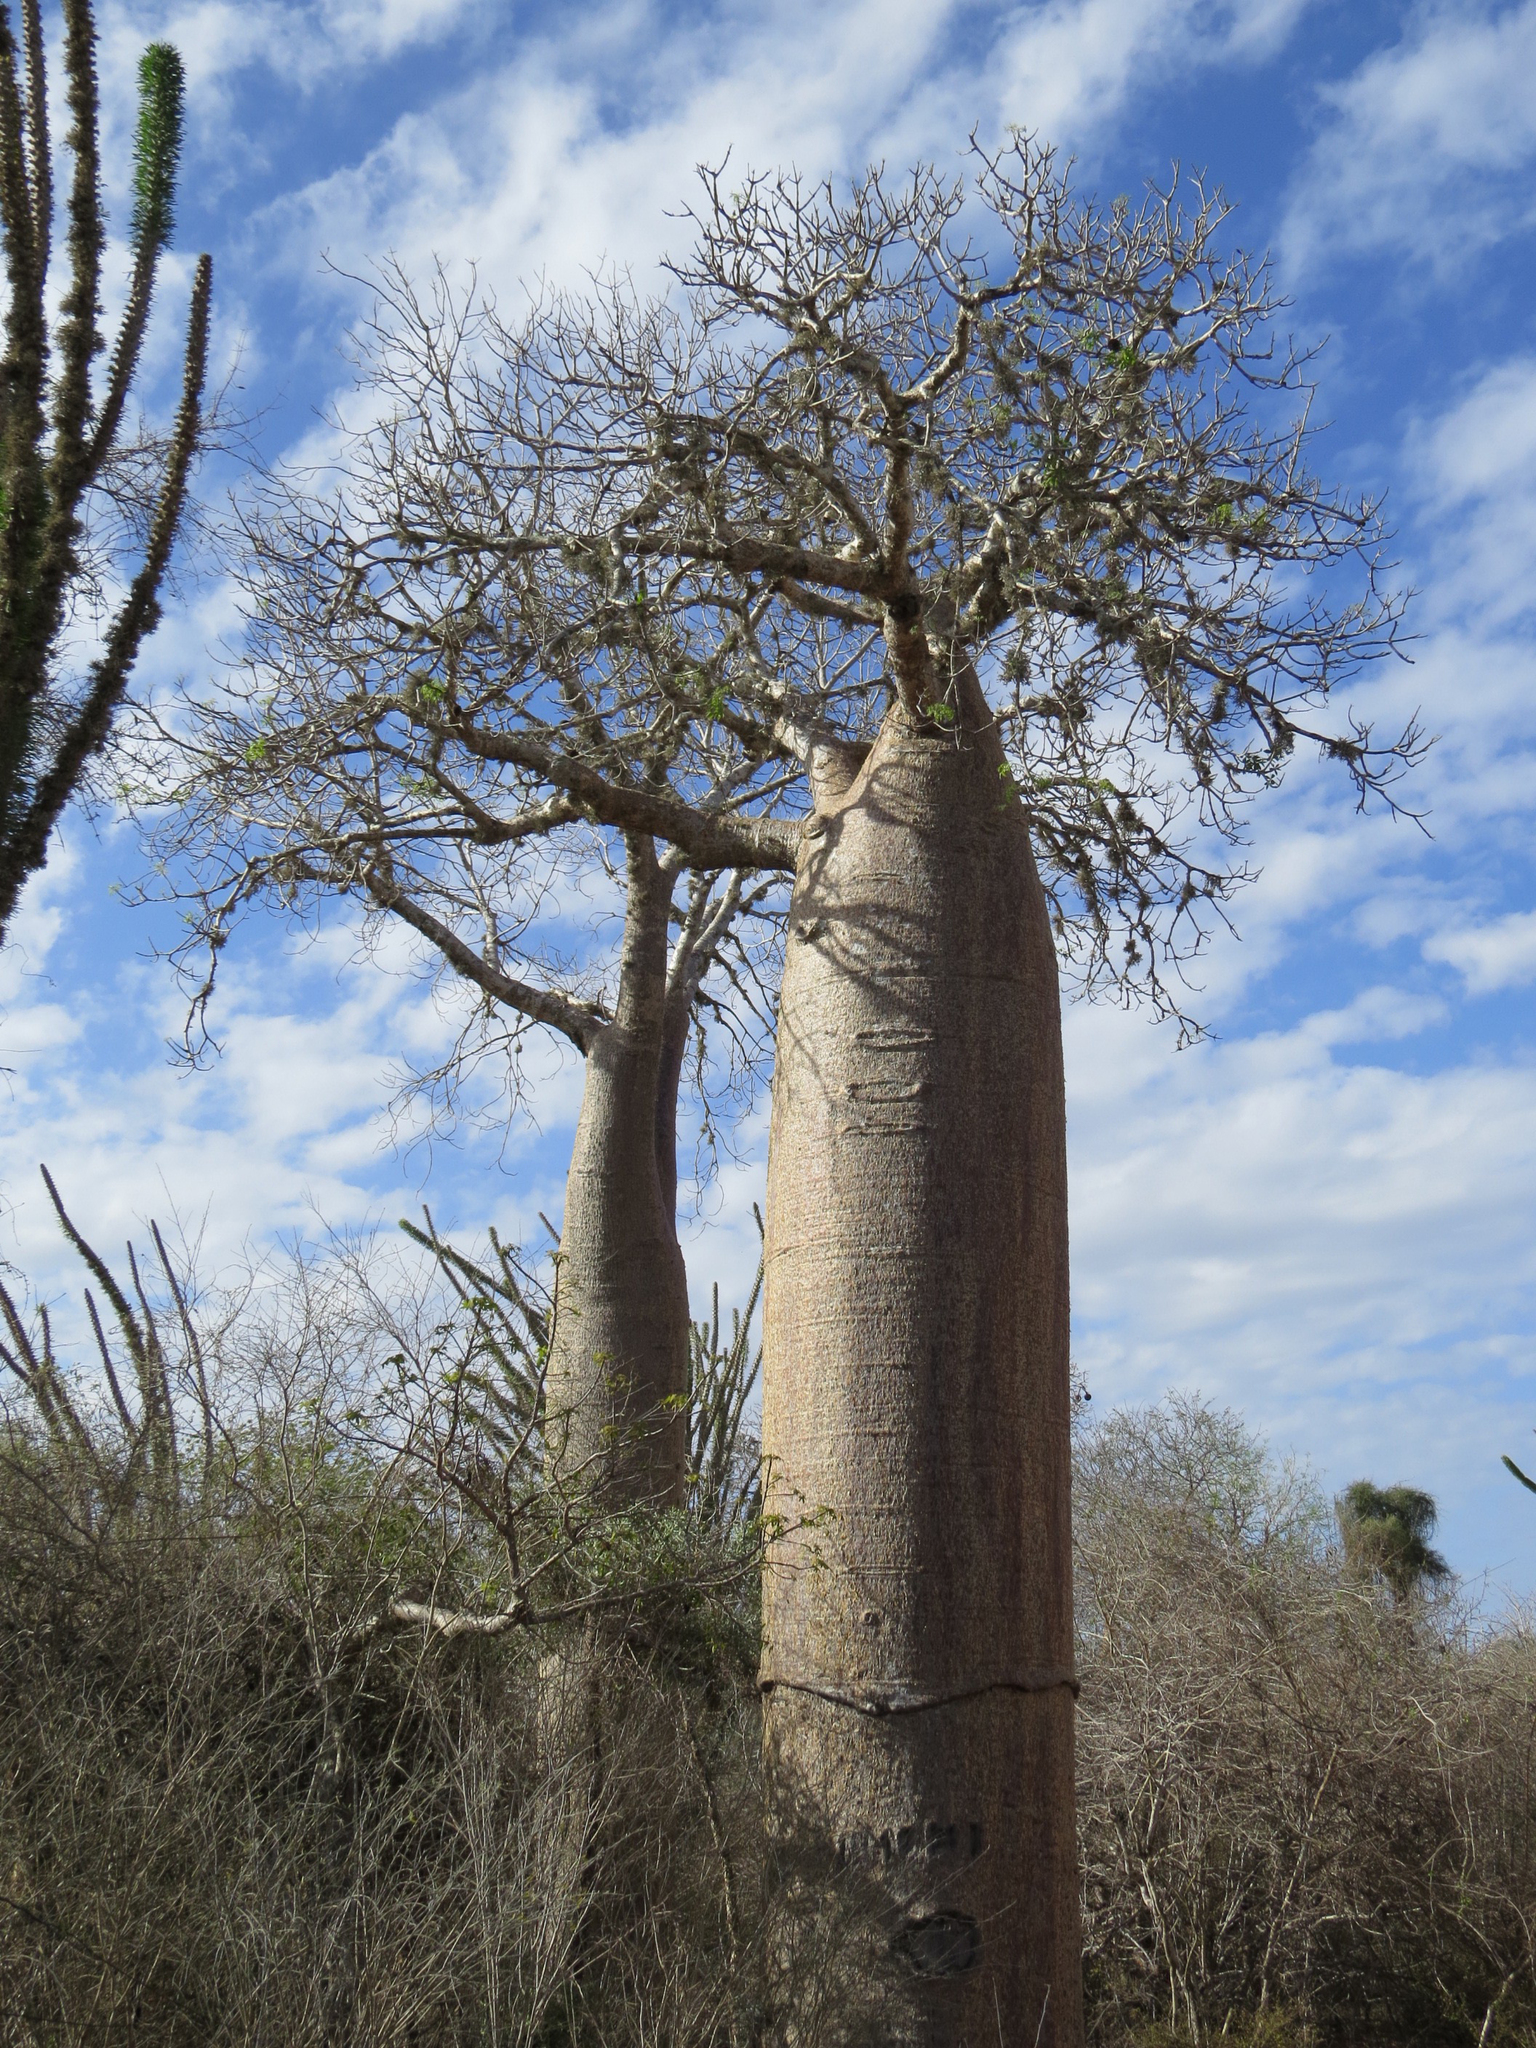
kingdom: Plantae
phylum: Tracheophyta
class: Magnoliopsida
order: Malvales
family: Malvaceae
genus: Adansonia
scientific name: Adansonia rubrostipa
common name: Fony baobab
